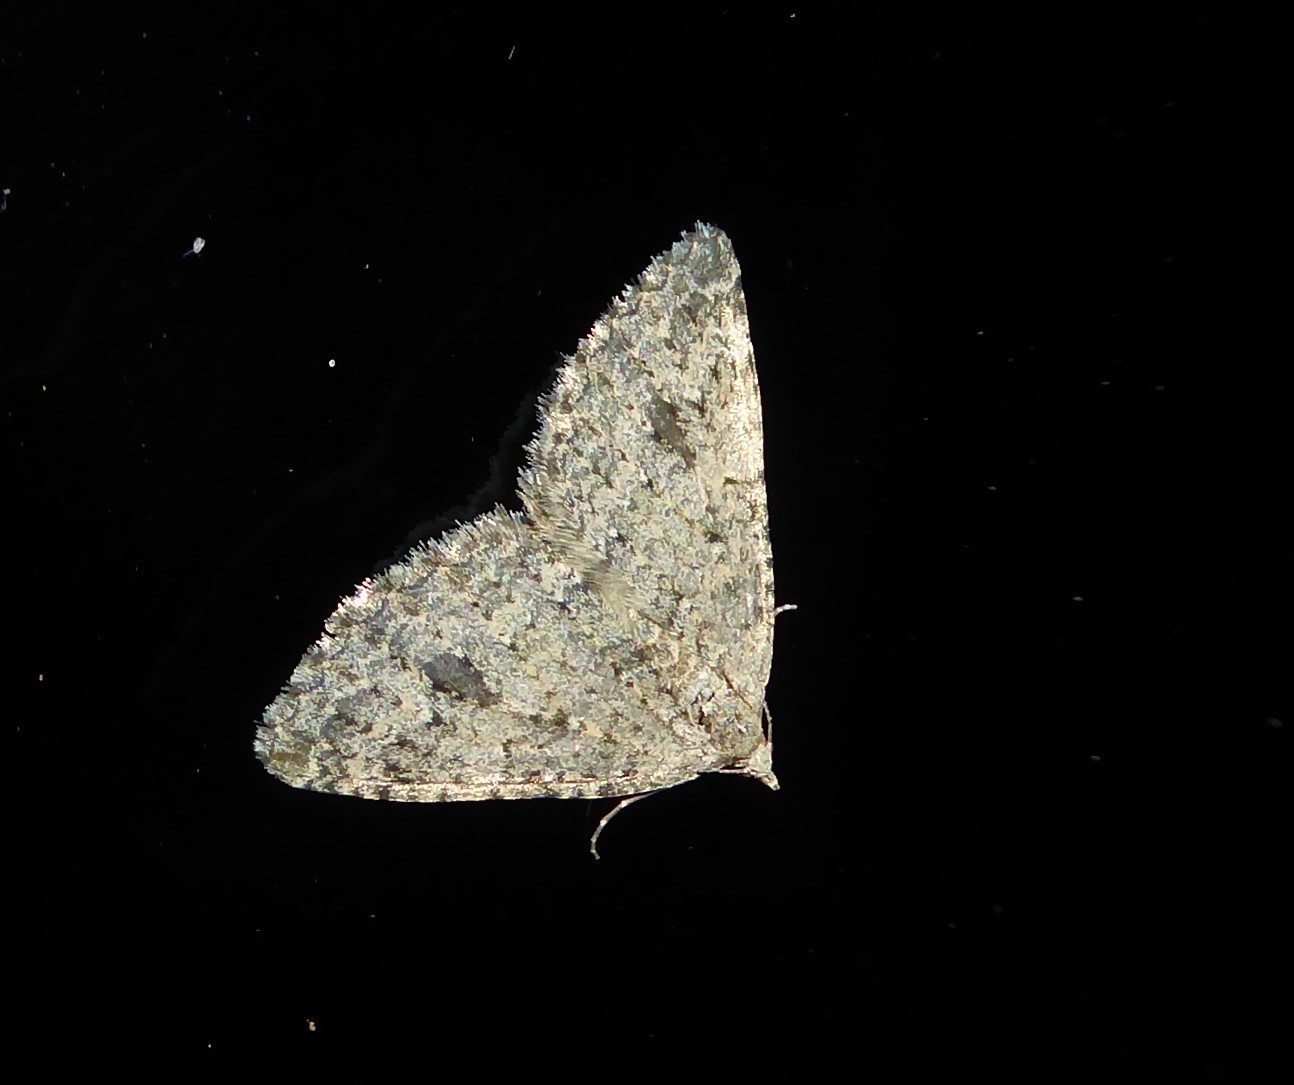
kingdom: Animalia
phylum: Arthropoda
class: Insecta
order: Lepidoptera
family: Geometridae
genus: Helastia
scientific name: Helastia corcularia
